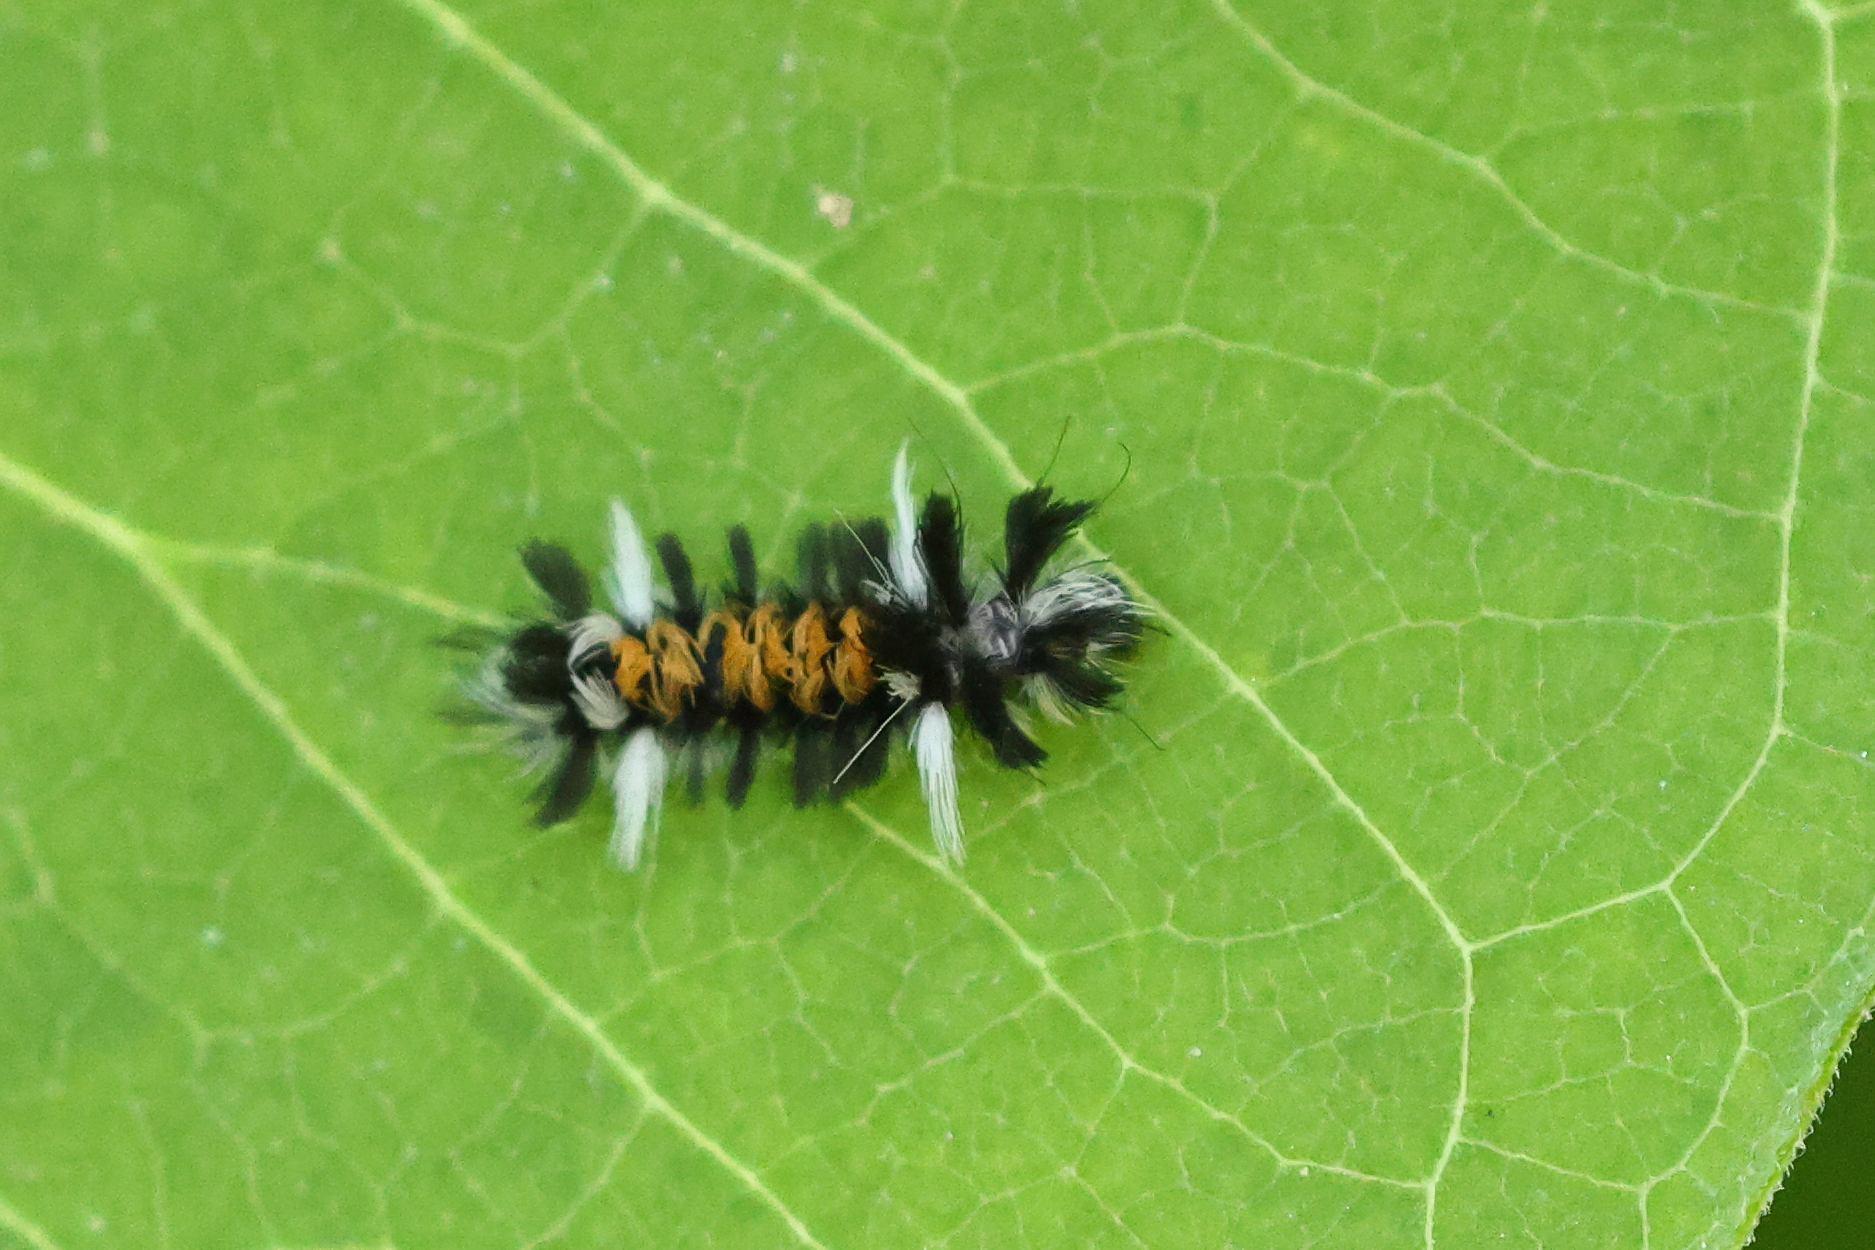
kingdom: Animalia
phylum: Arthropoda
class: Insecta
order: Lepidoptera
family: Erebidae
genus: Euchaetes
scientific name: Euchaetes egle
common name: Milkweed tussock moth
